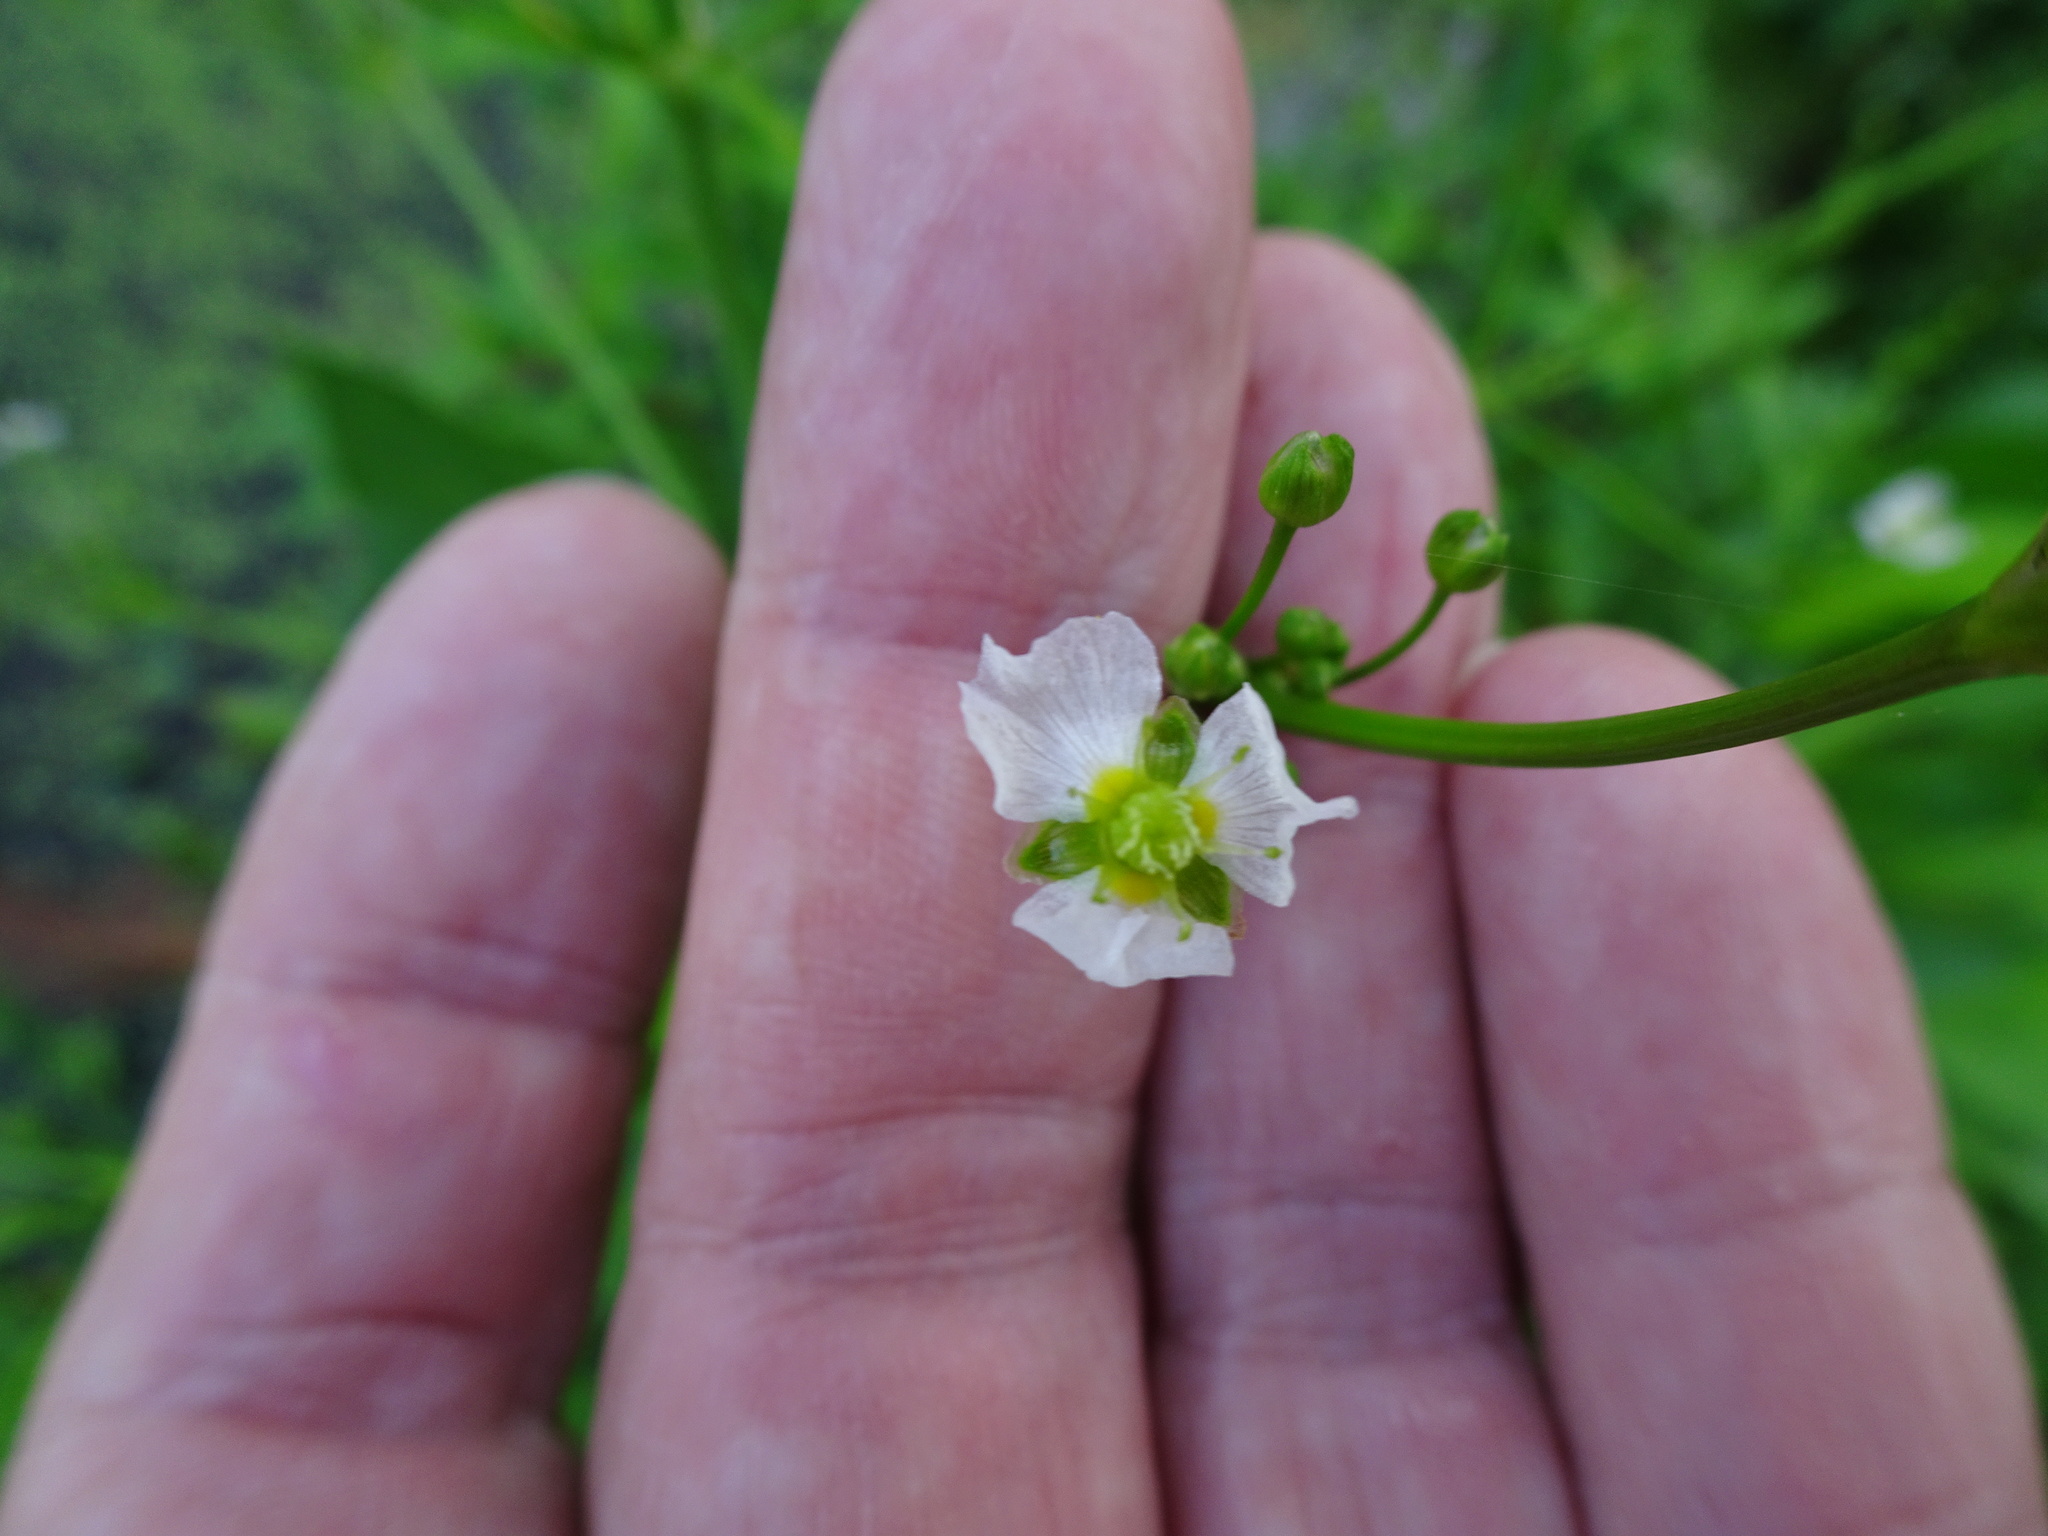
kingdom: Plantae
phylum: Tracheophyta
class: Liliopsida
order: Alismatales
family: Alismataceae
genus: Alisma
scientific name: Alisma plantago-aquatica
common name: Water-plantain
